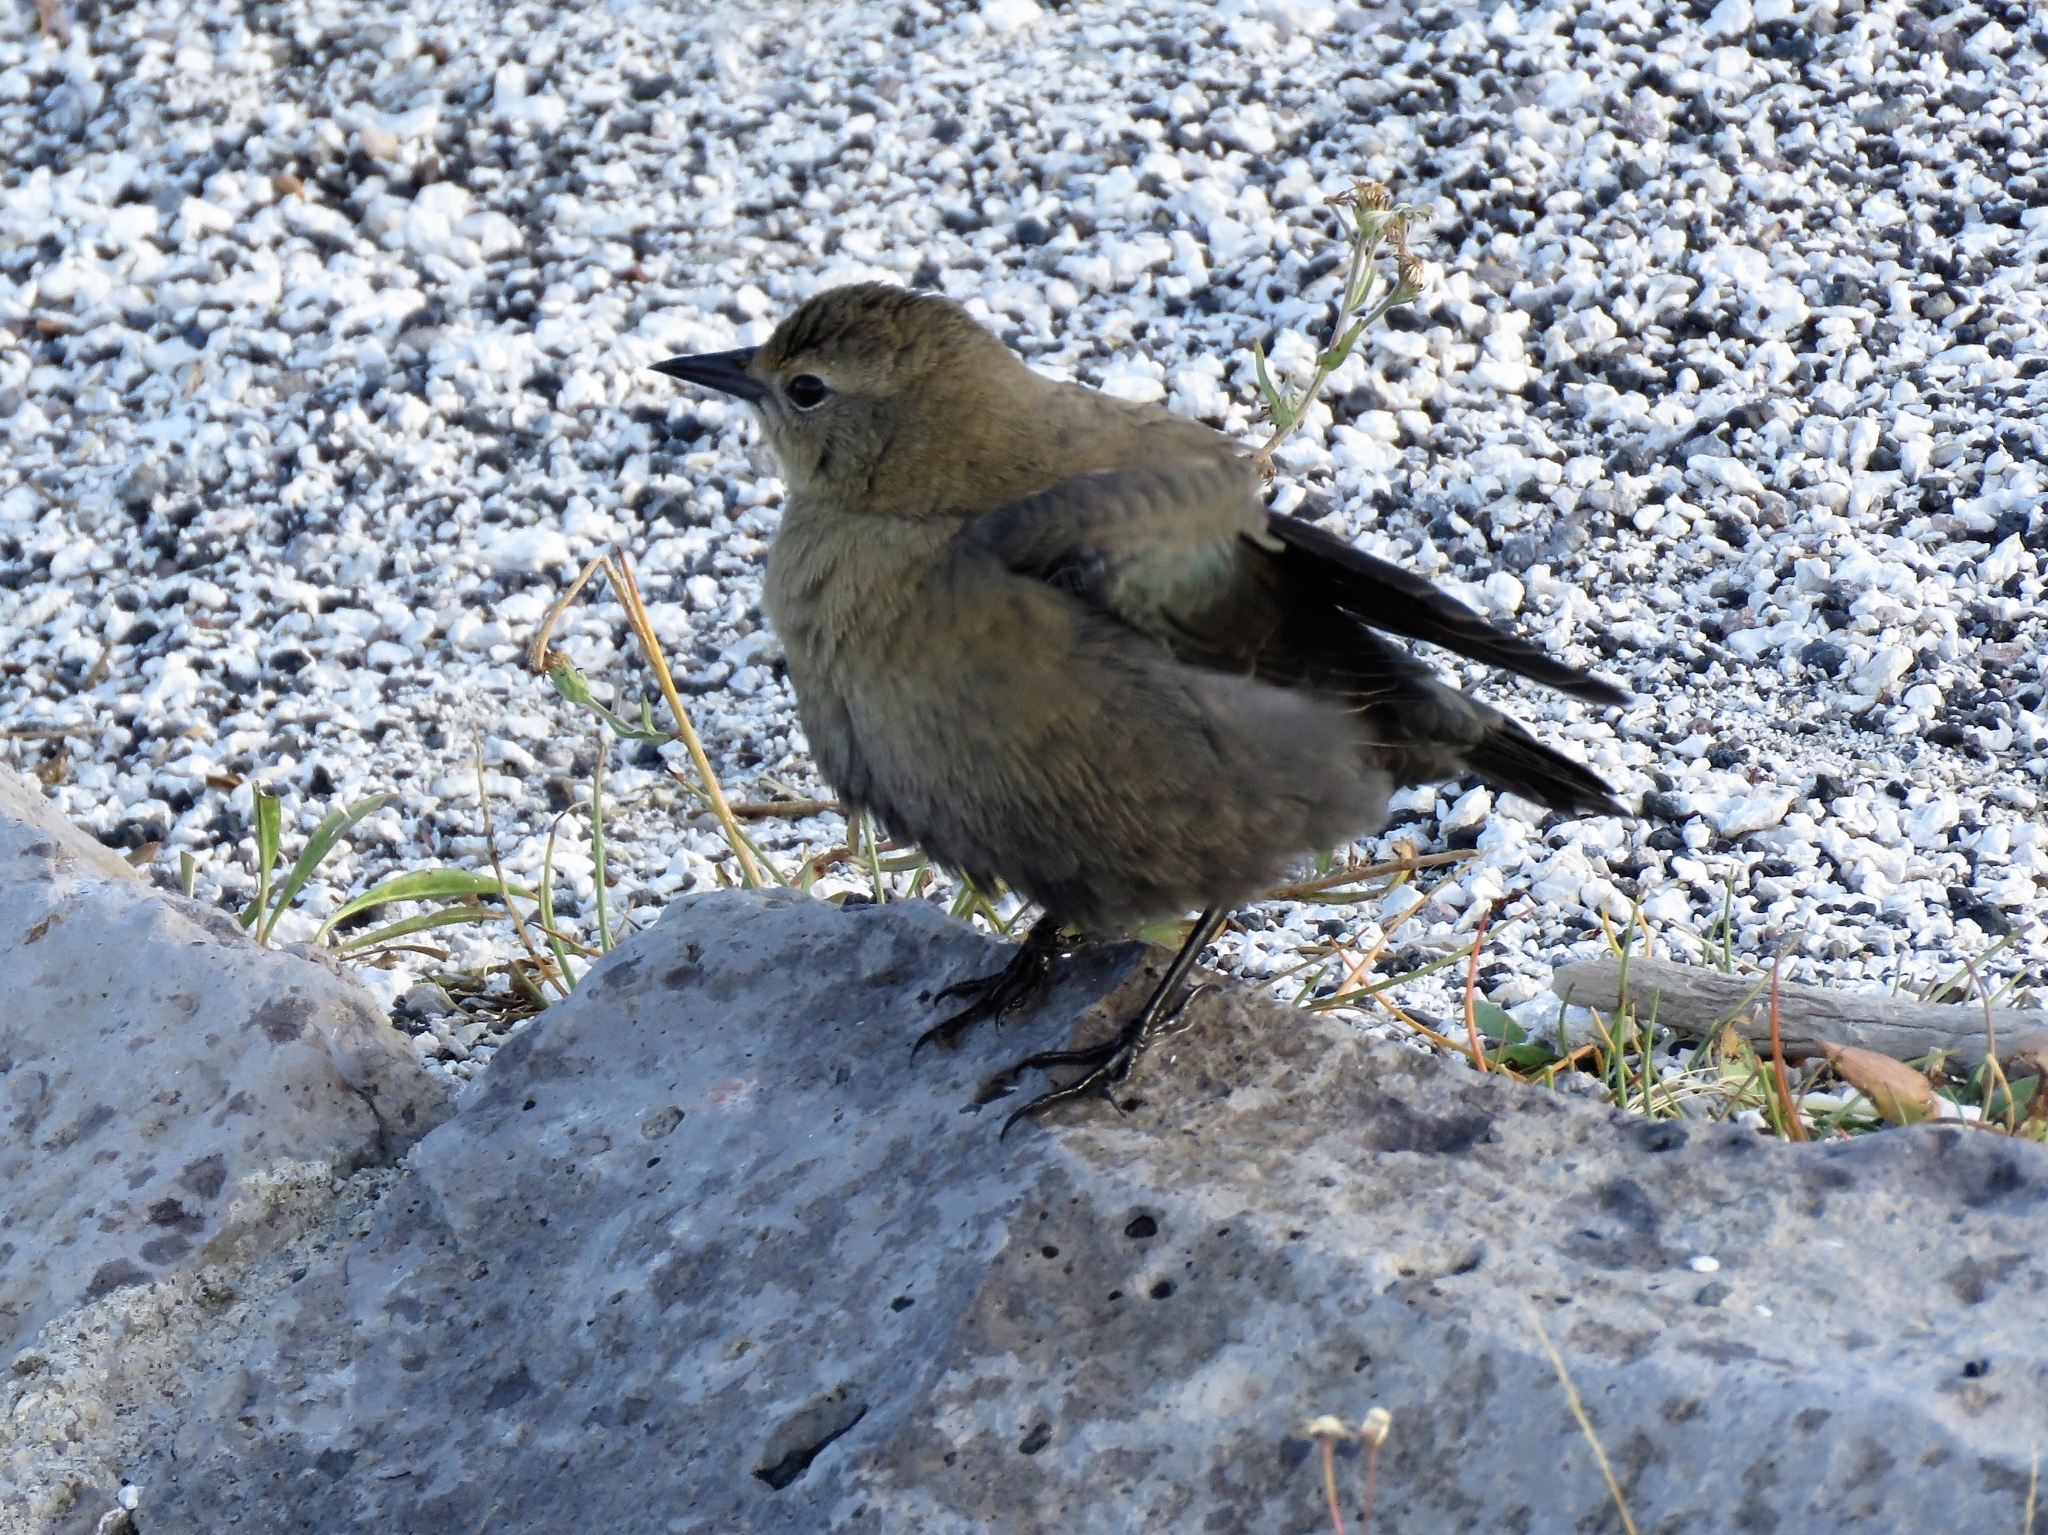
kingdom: Animalia
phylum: Chordata
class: Aves
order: Passeriformes
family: Icteridae
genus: Euphagus
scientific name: Euphagus cyanocephalus
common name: Brewer's blackbird
